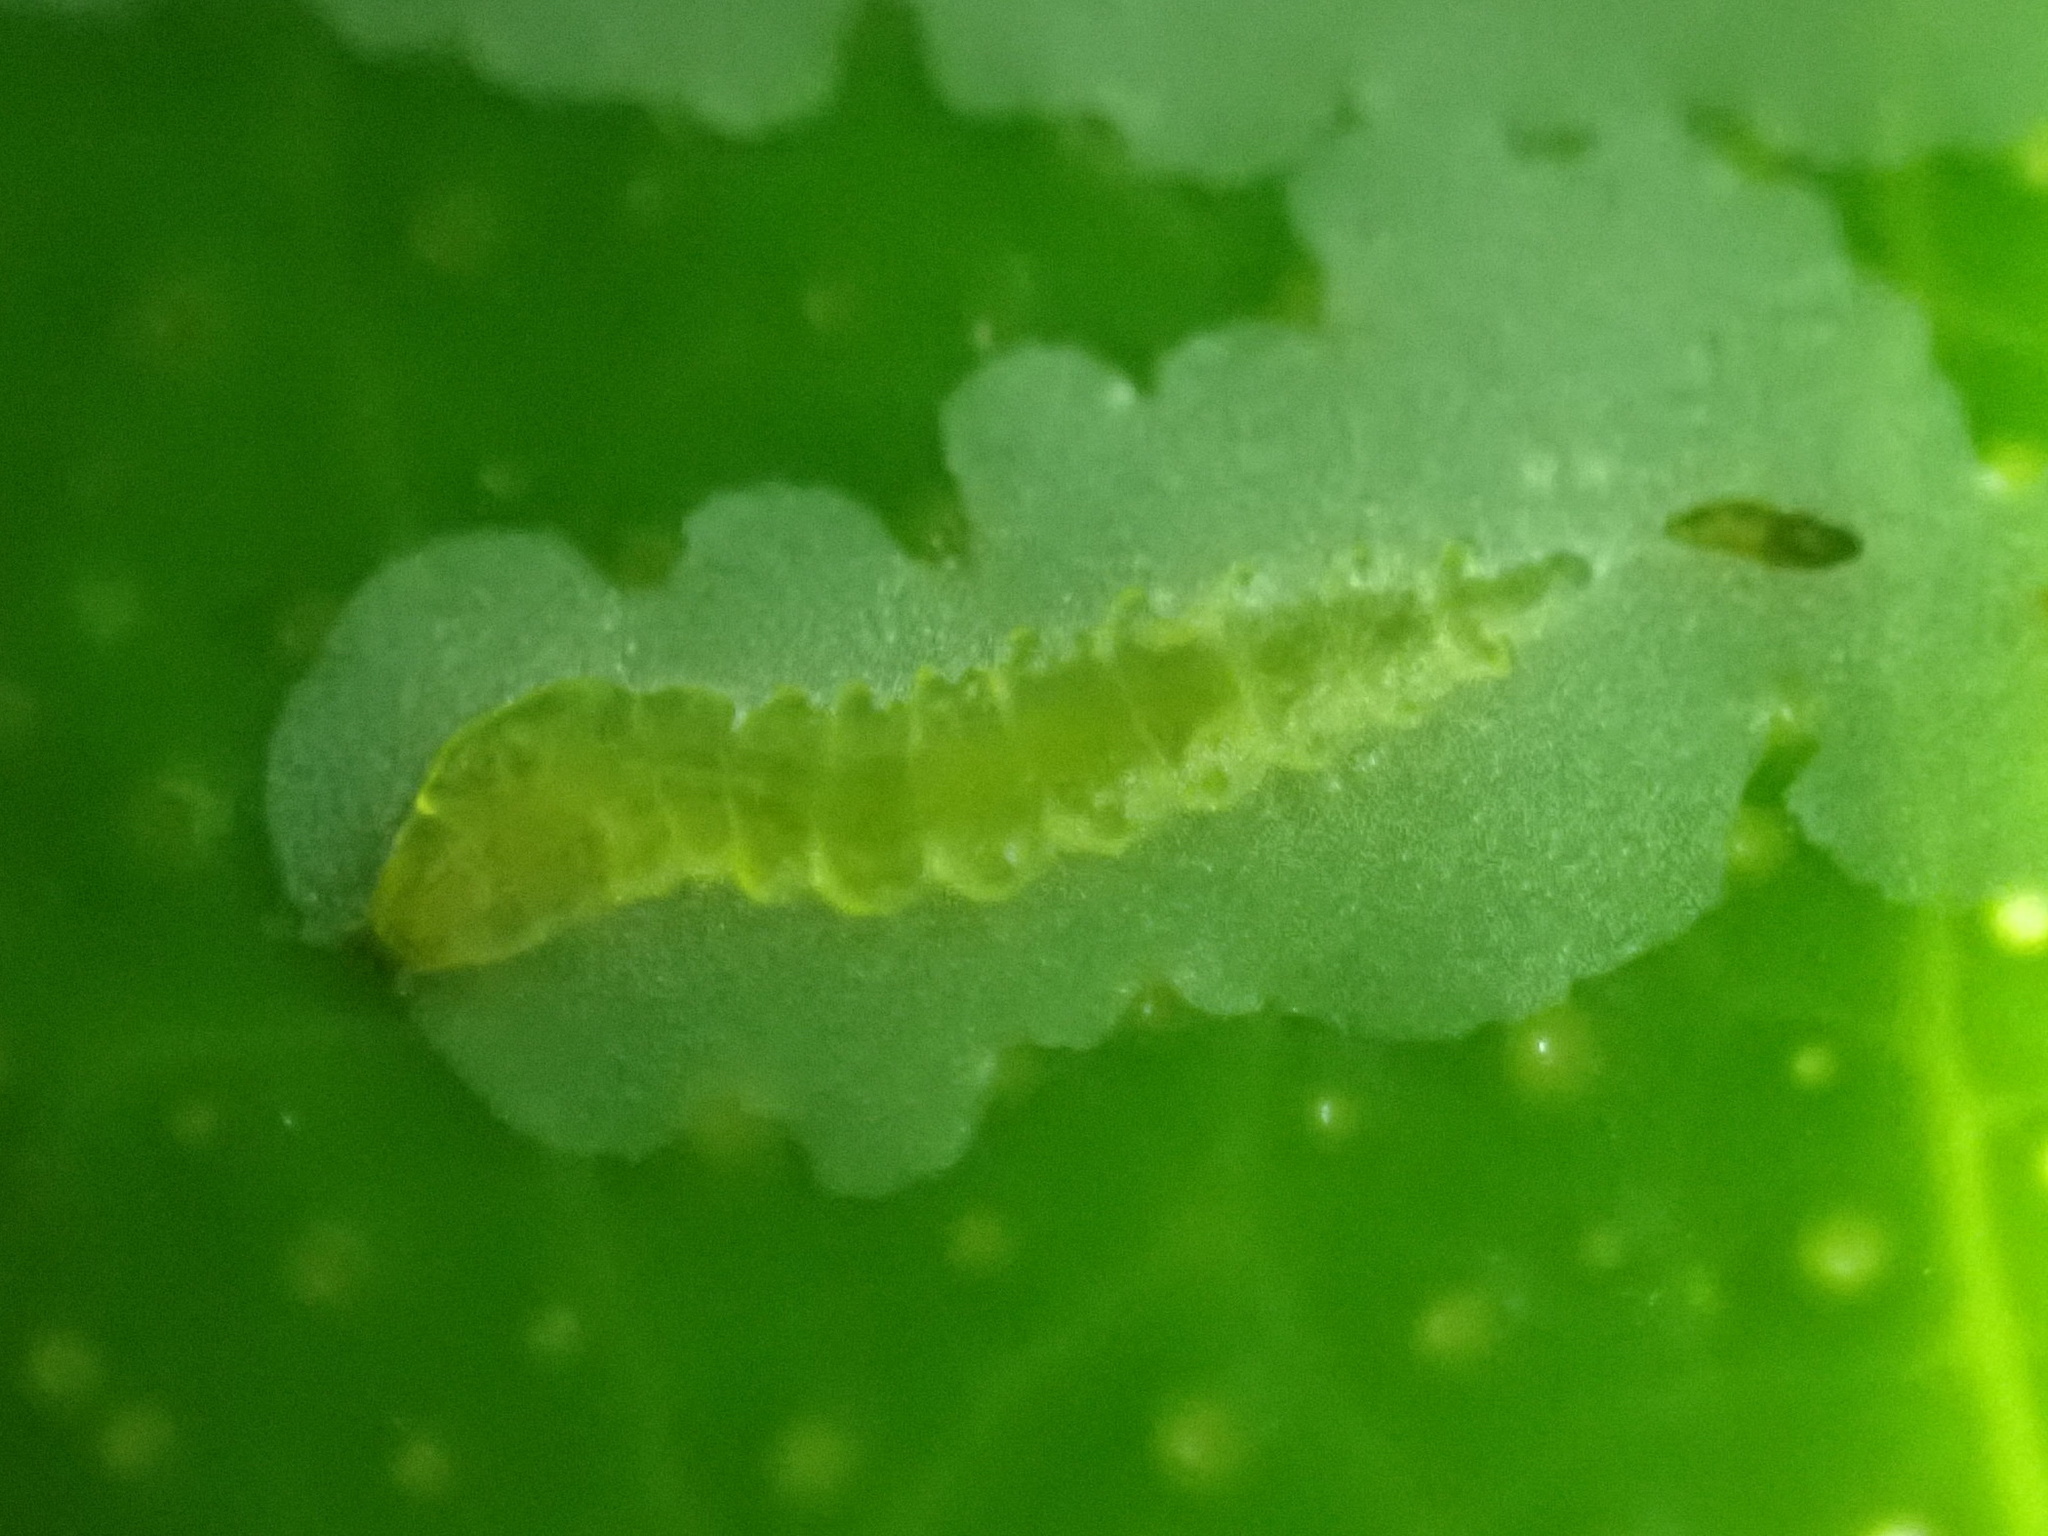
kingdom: Animalia
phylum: Arthropoda
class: Insecta
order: Lepidoptera
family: Gracillariidae
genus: Phyllocnistis
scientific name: Phyllocnistis citrella
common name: Citrus leafminer
